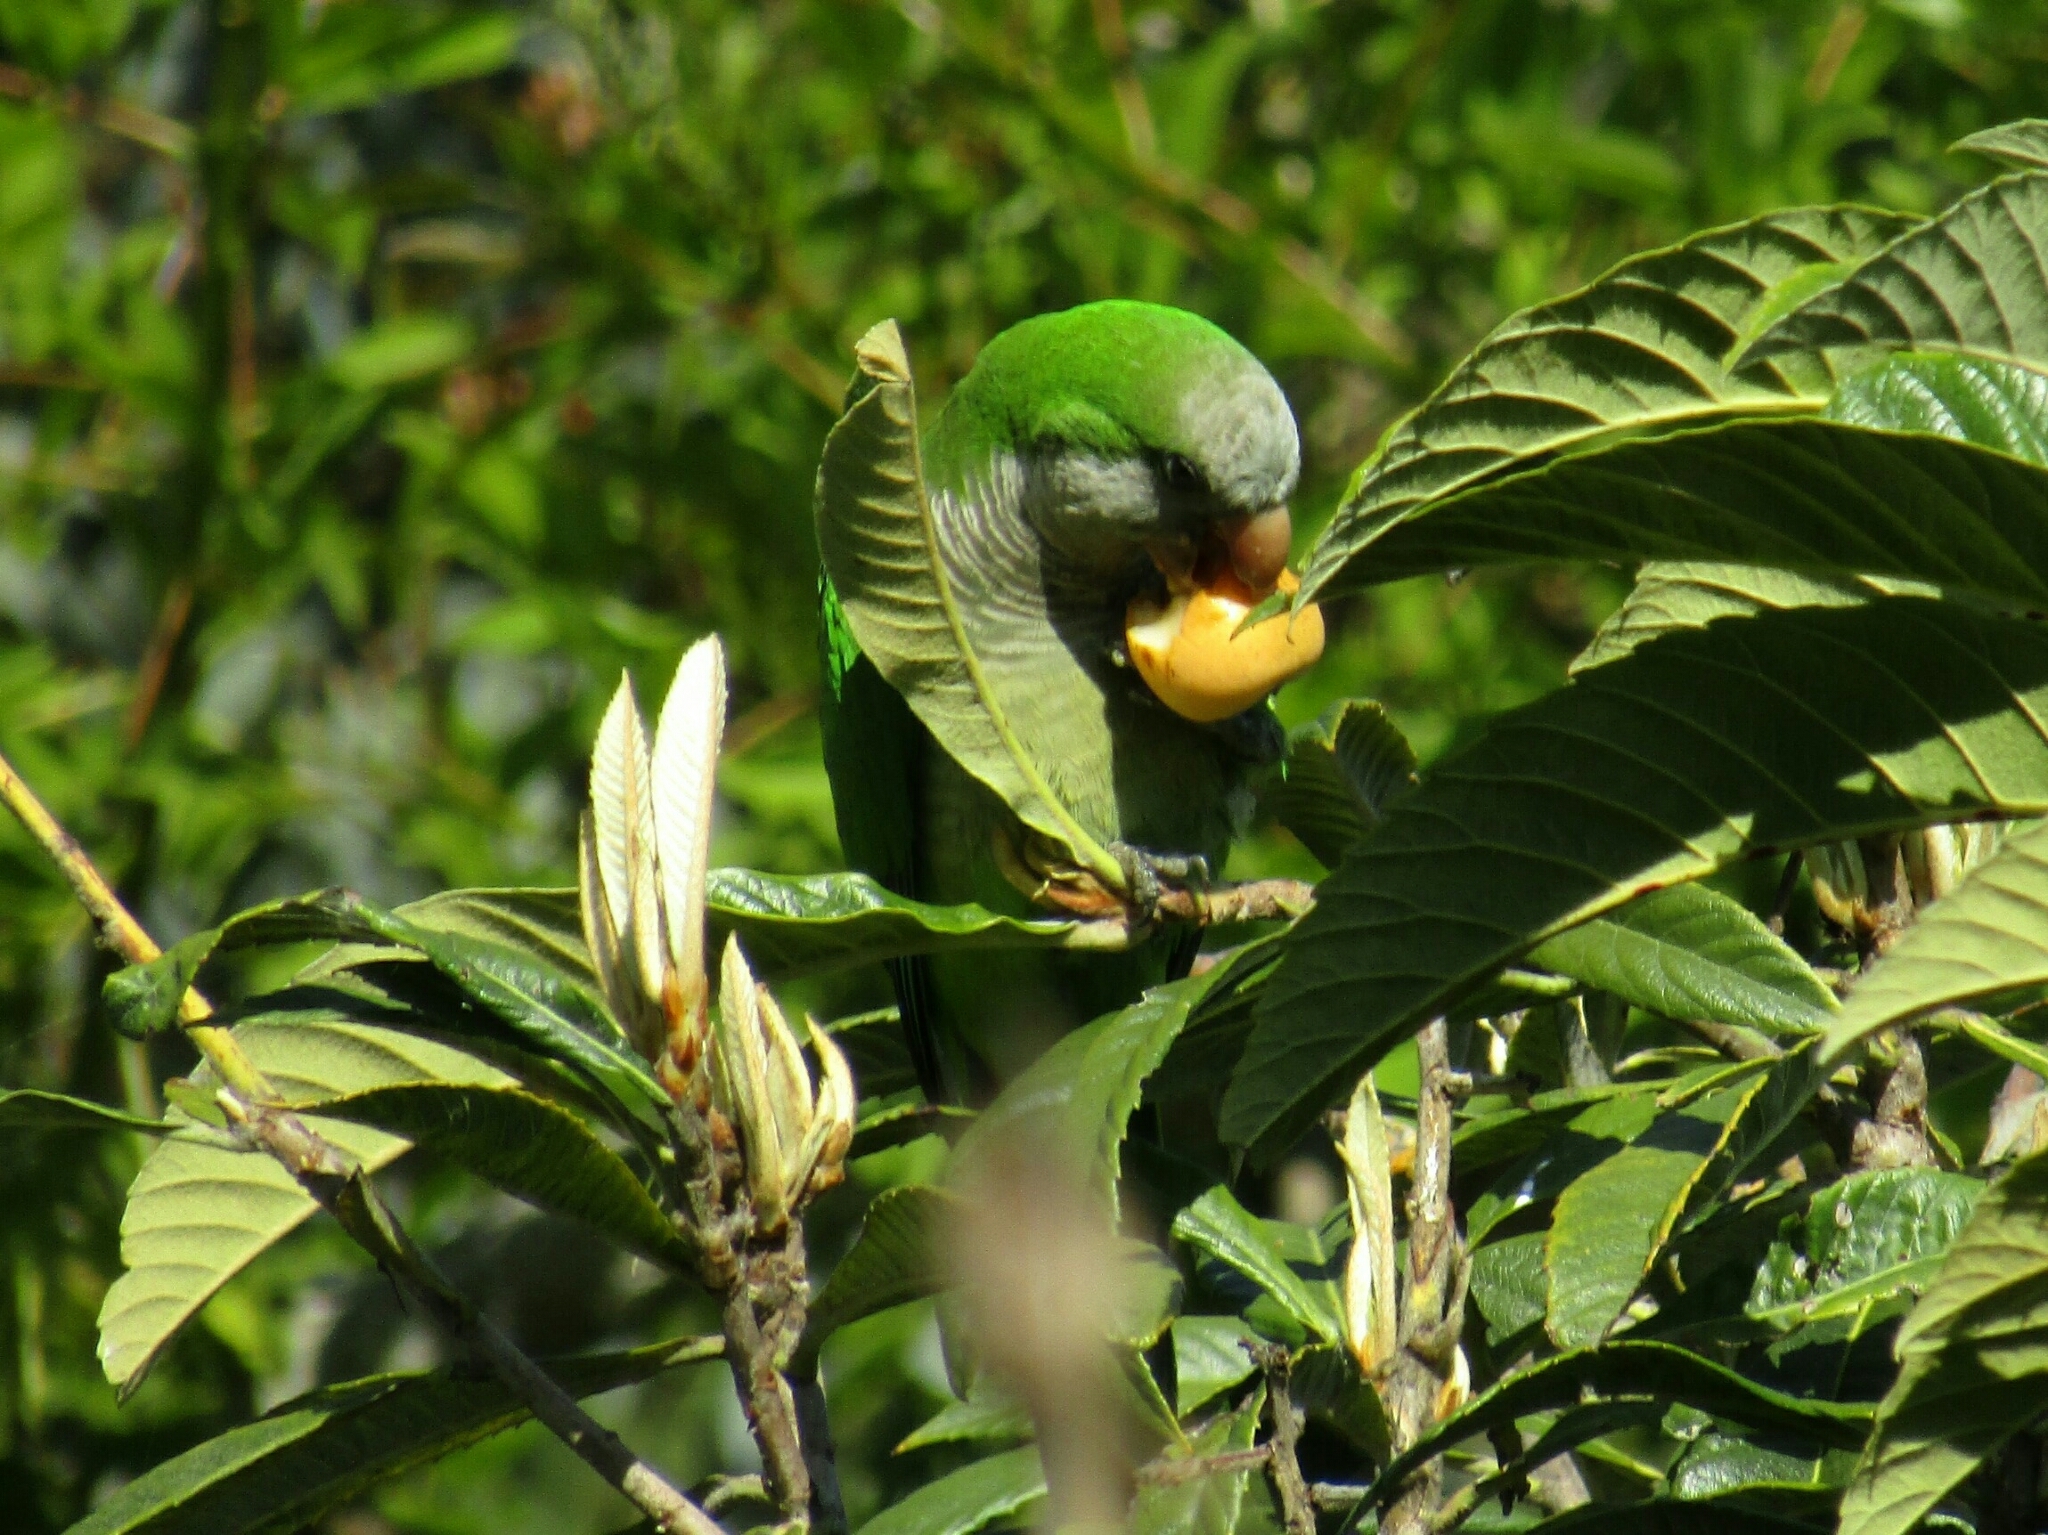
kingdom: Animalia
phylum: Chordata
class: Aves
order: Psittaciformes
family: Psittacidae
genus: Myiopsitta
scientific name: Myiopsitta monachus
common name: Monk parakeet
